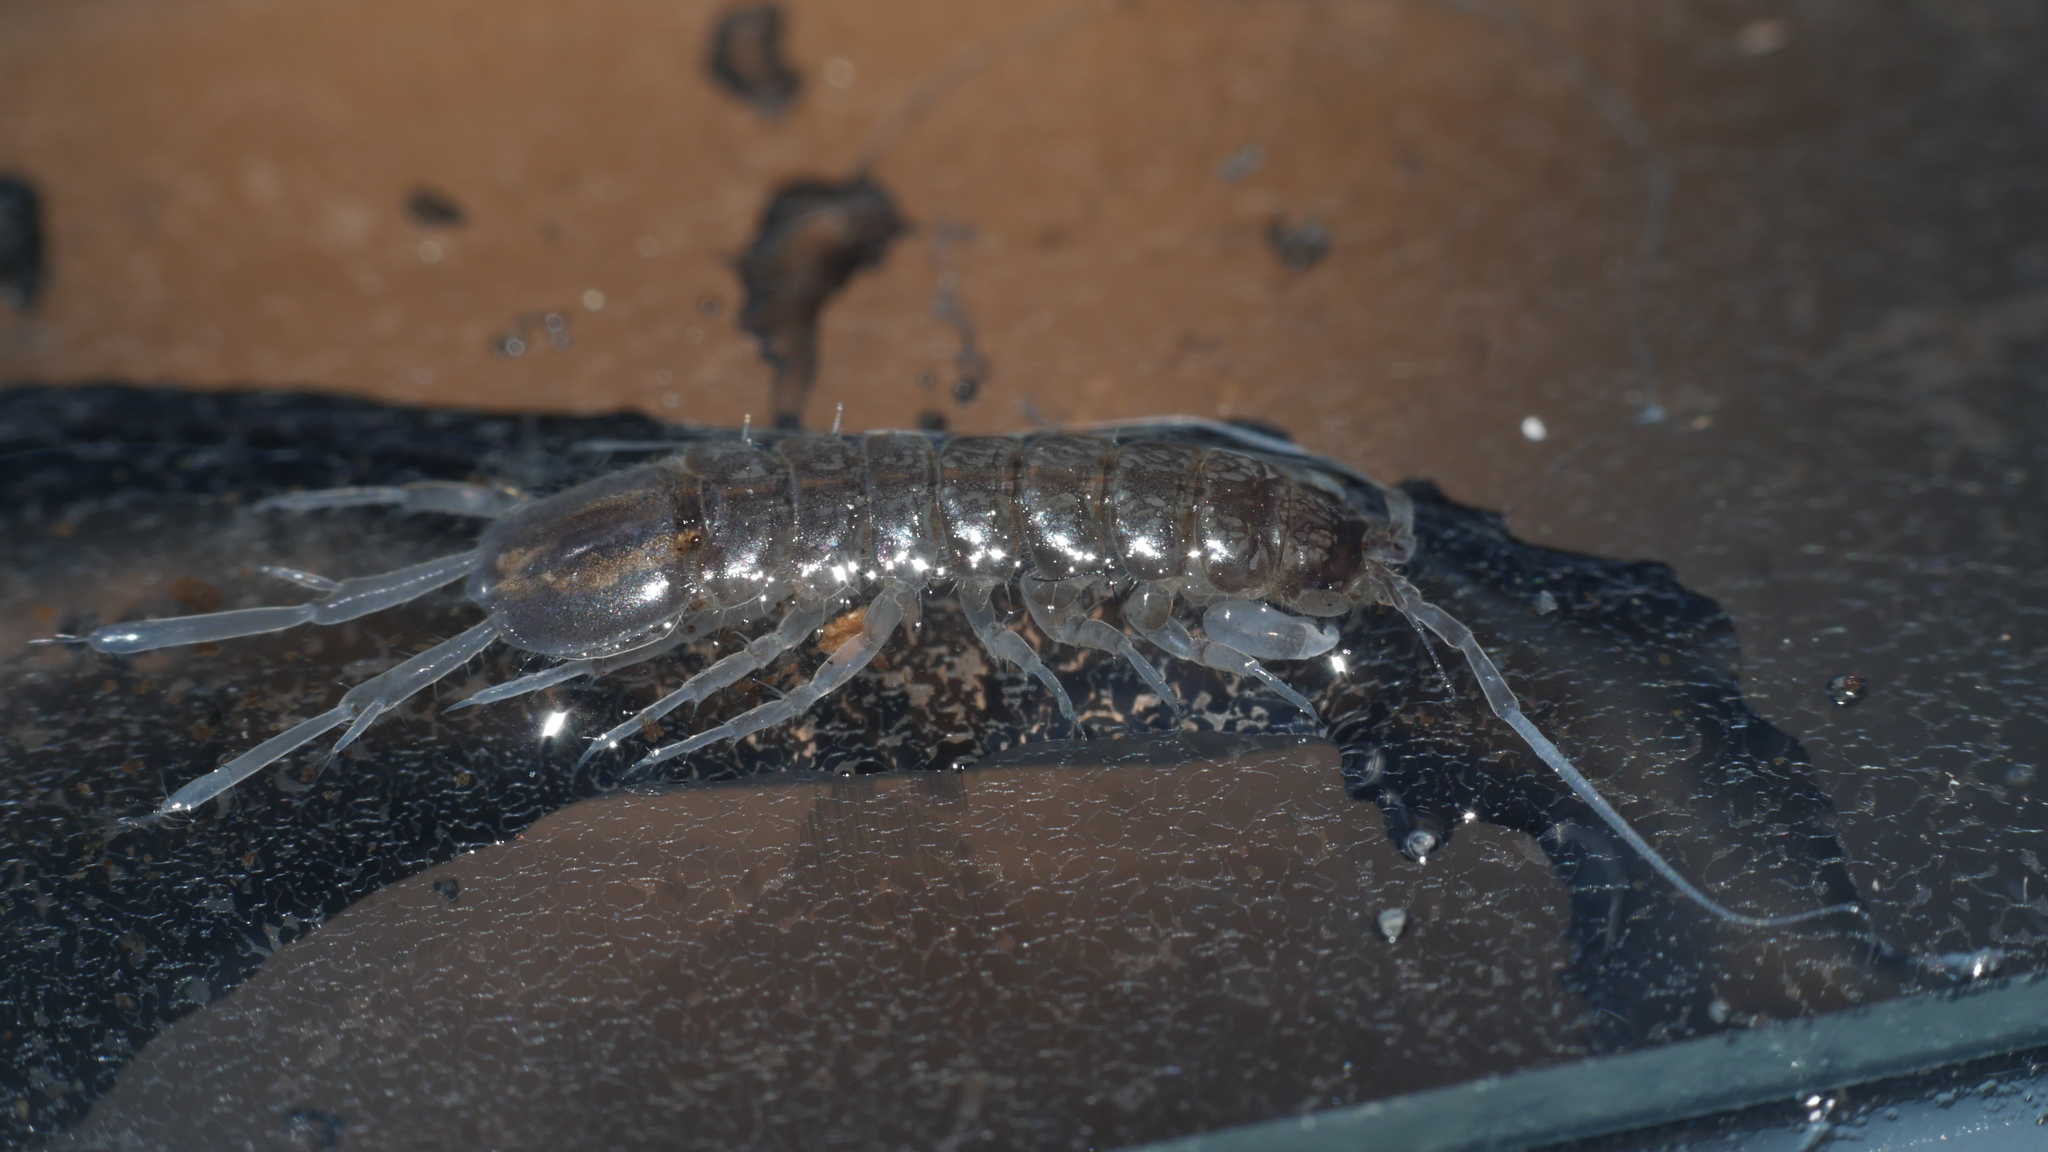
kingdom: Animalia
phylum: Arthropoda
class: Malacostraca
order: Isopoda
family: Asellidae
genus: Caecidotea
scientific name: Caecidotea nodula
